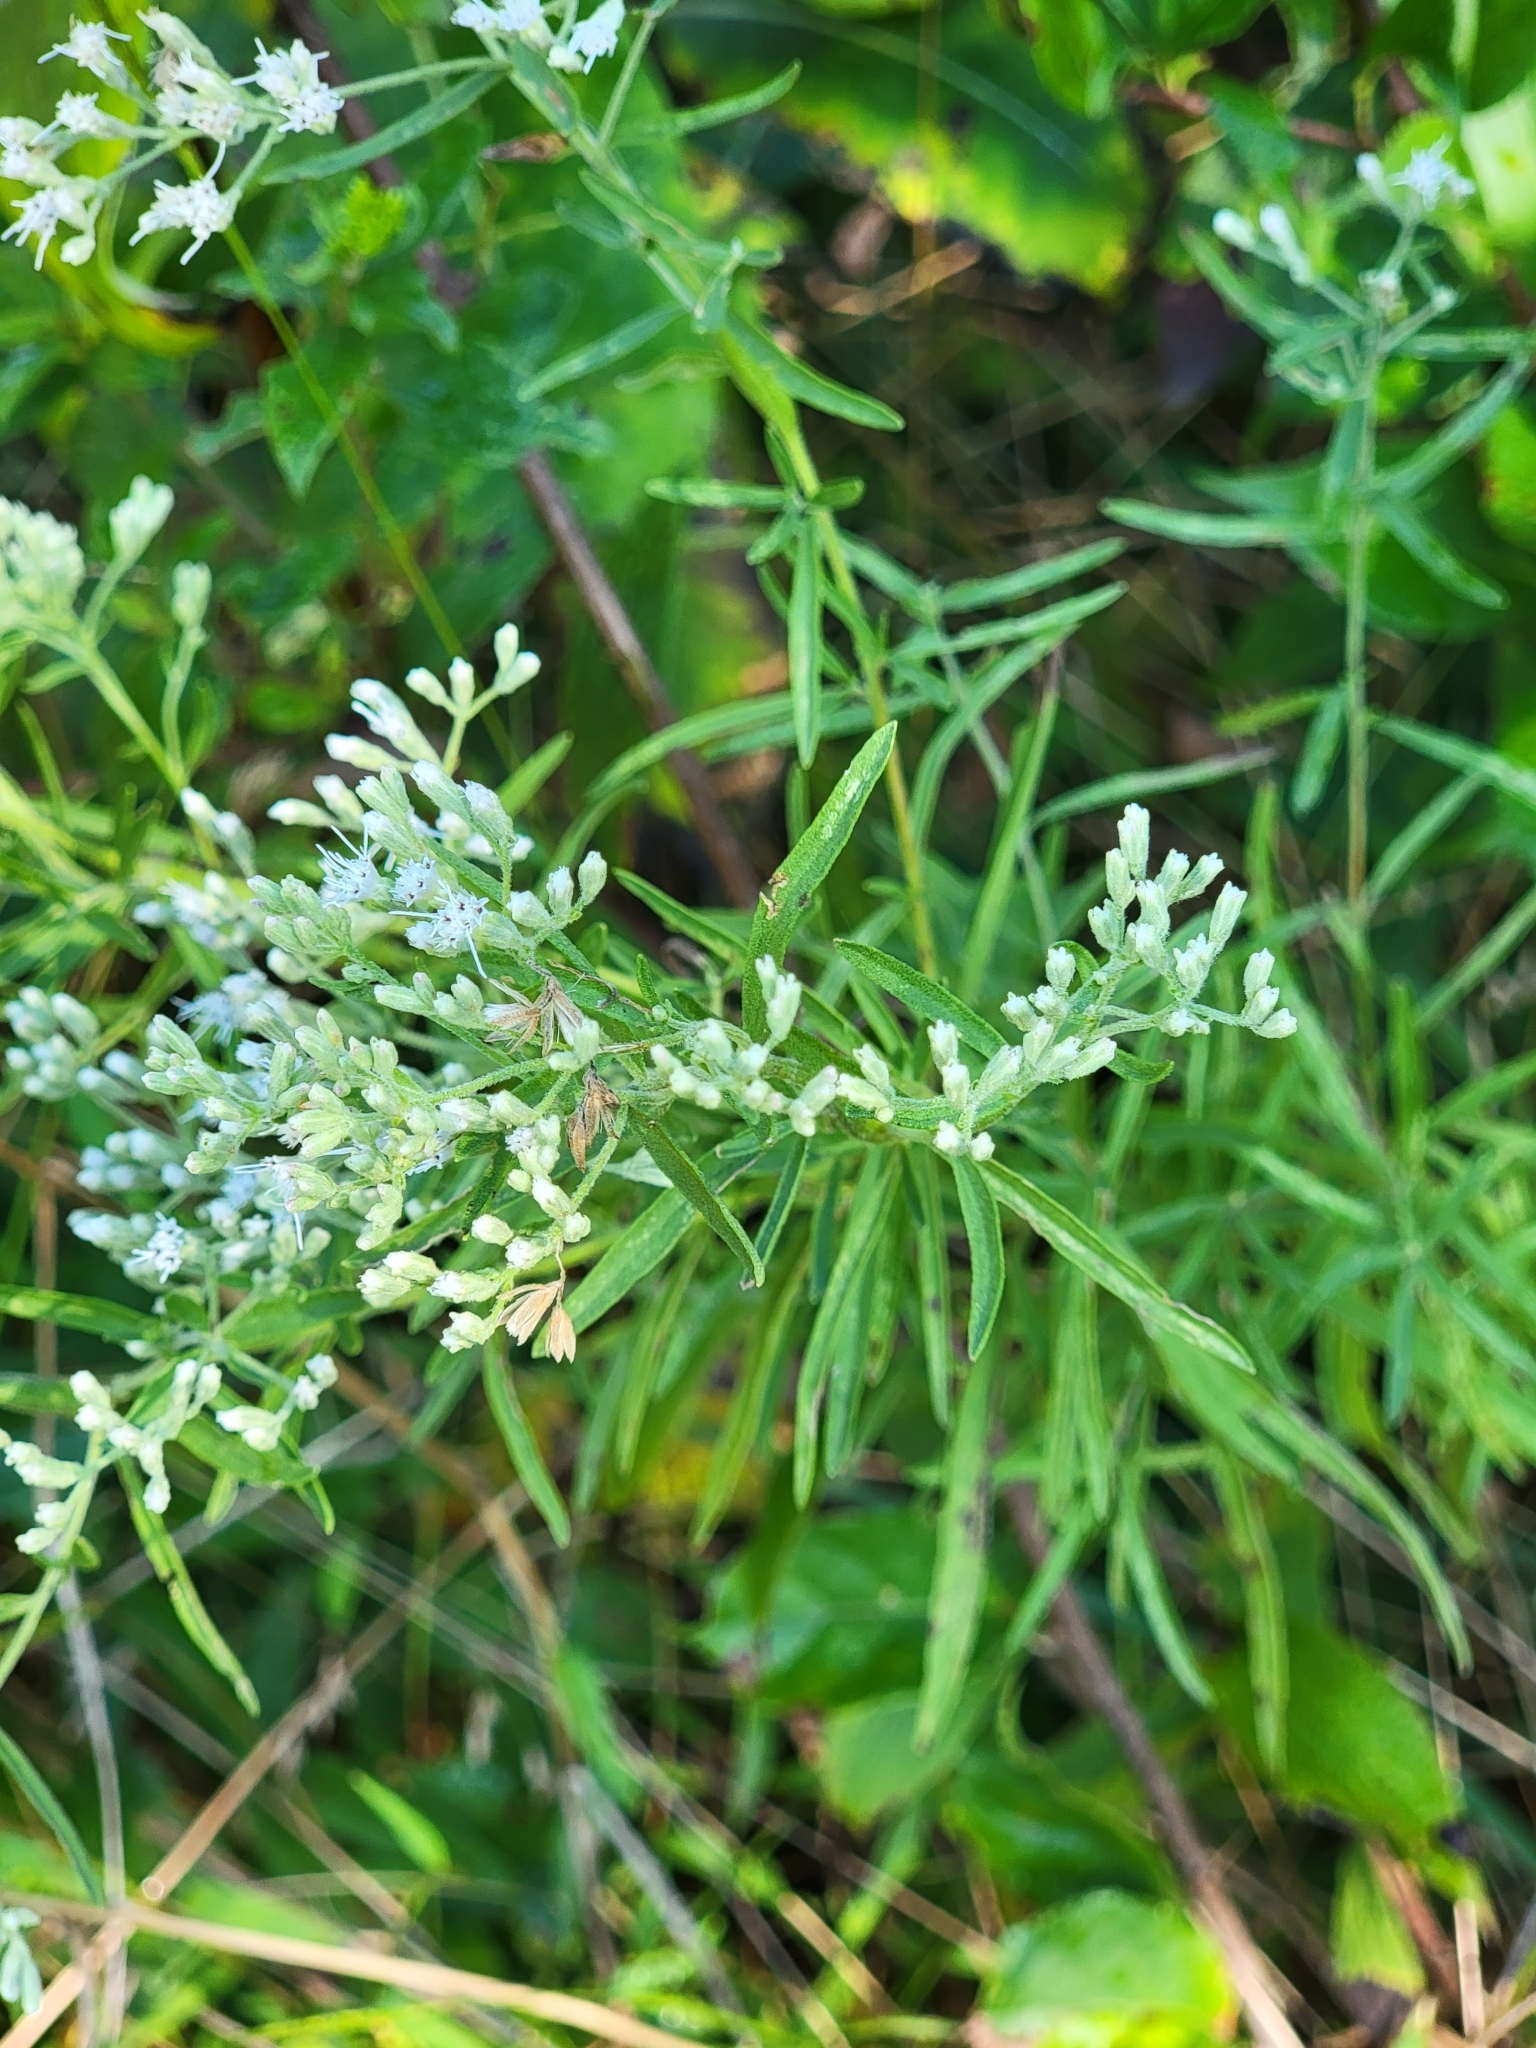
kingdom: Plantae
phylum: Tracheophyta
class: Magnoliopsida
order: Asterales
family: Asteraceae
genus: Eupatorium
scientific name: Eupatorium hyssopifolium
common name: Hyssop-leaf thoroughwort
